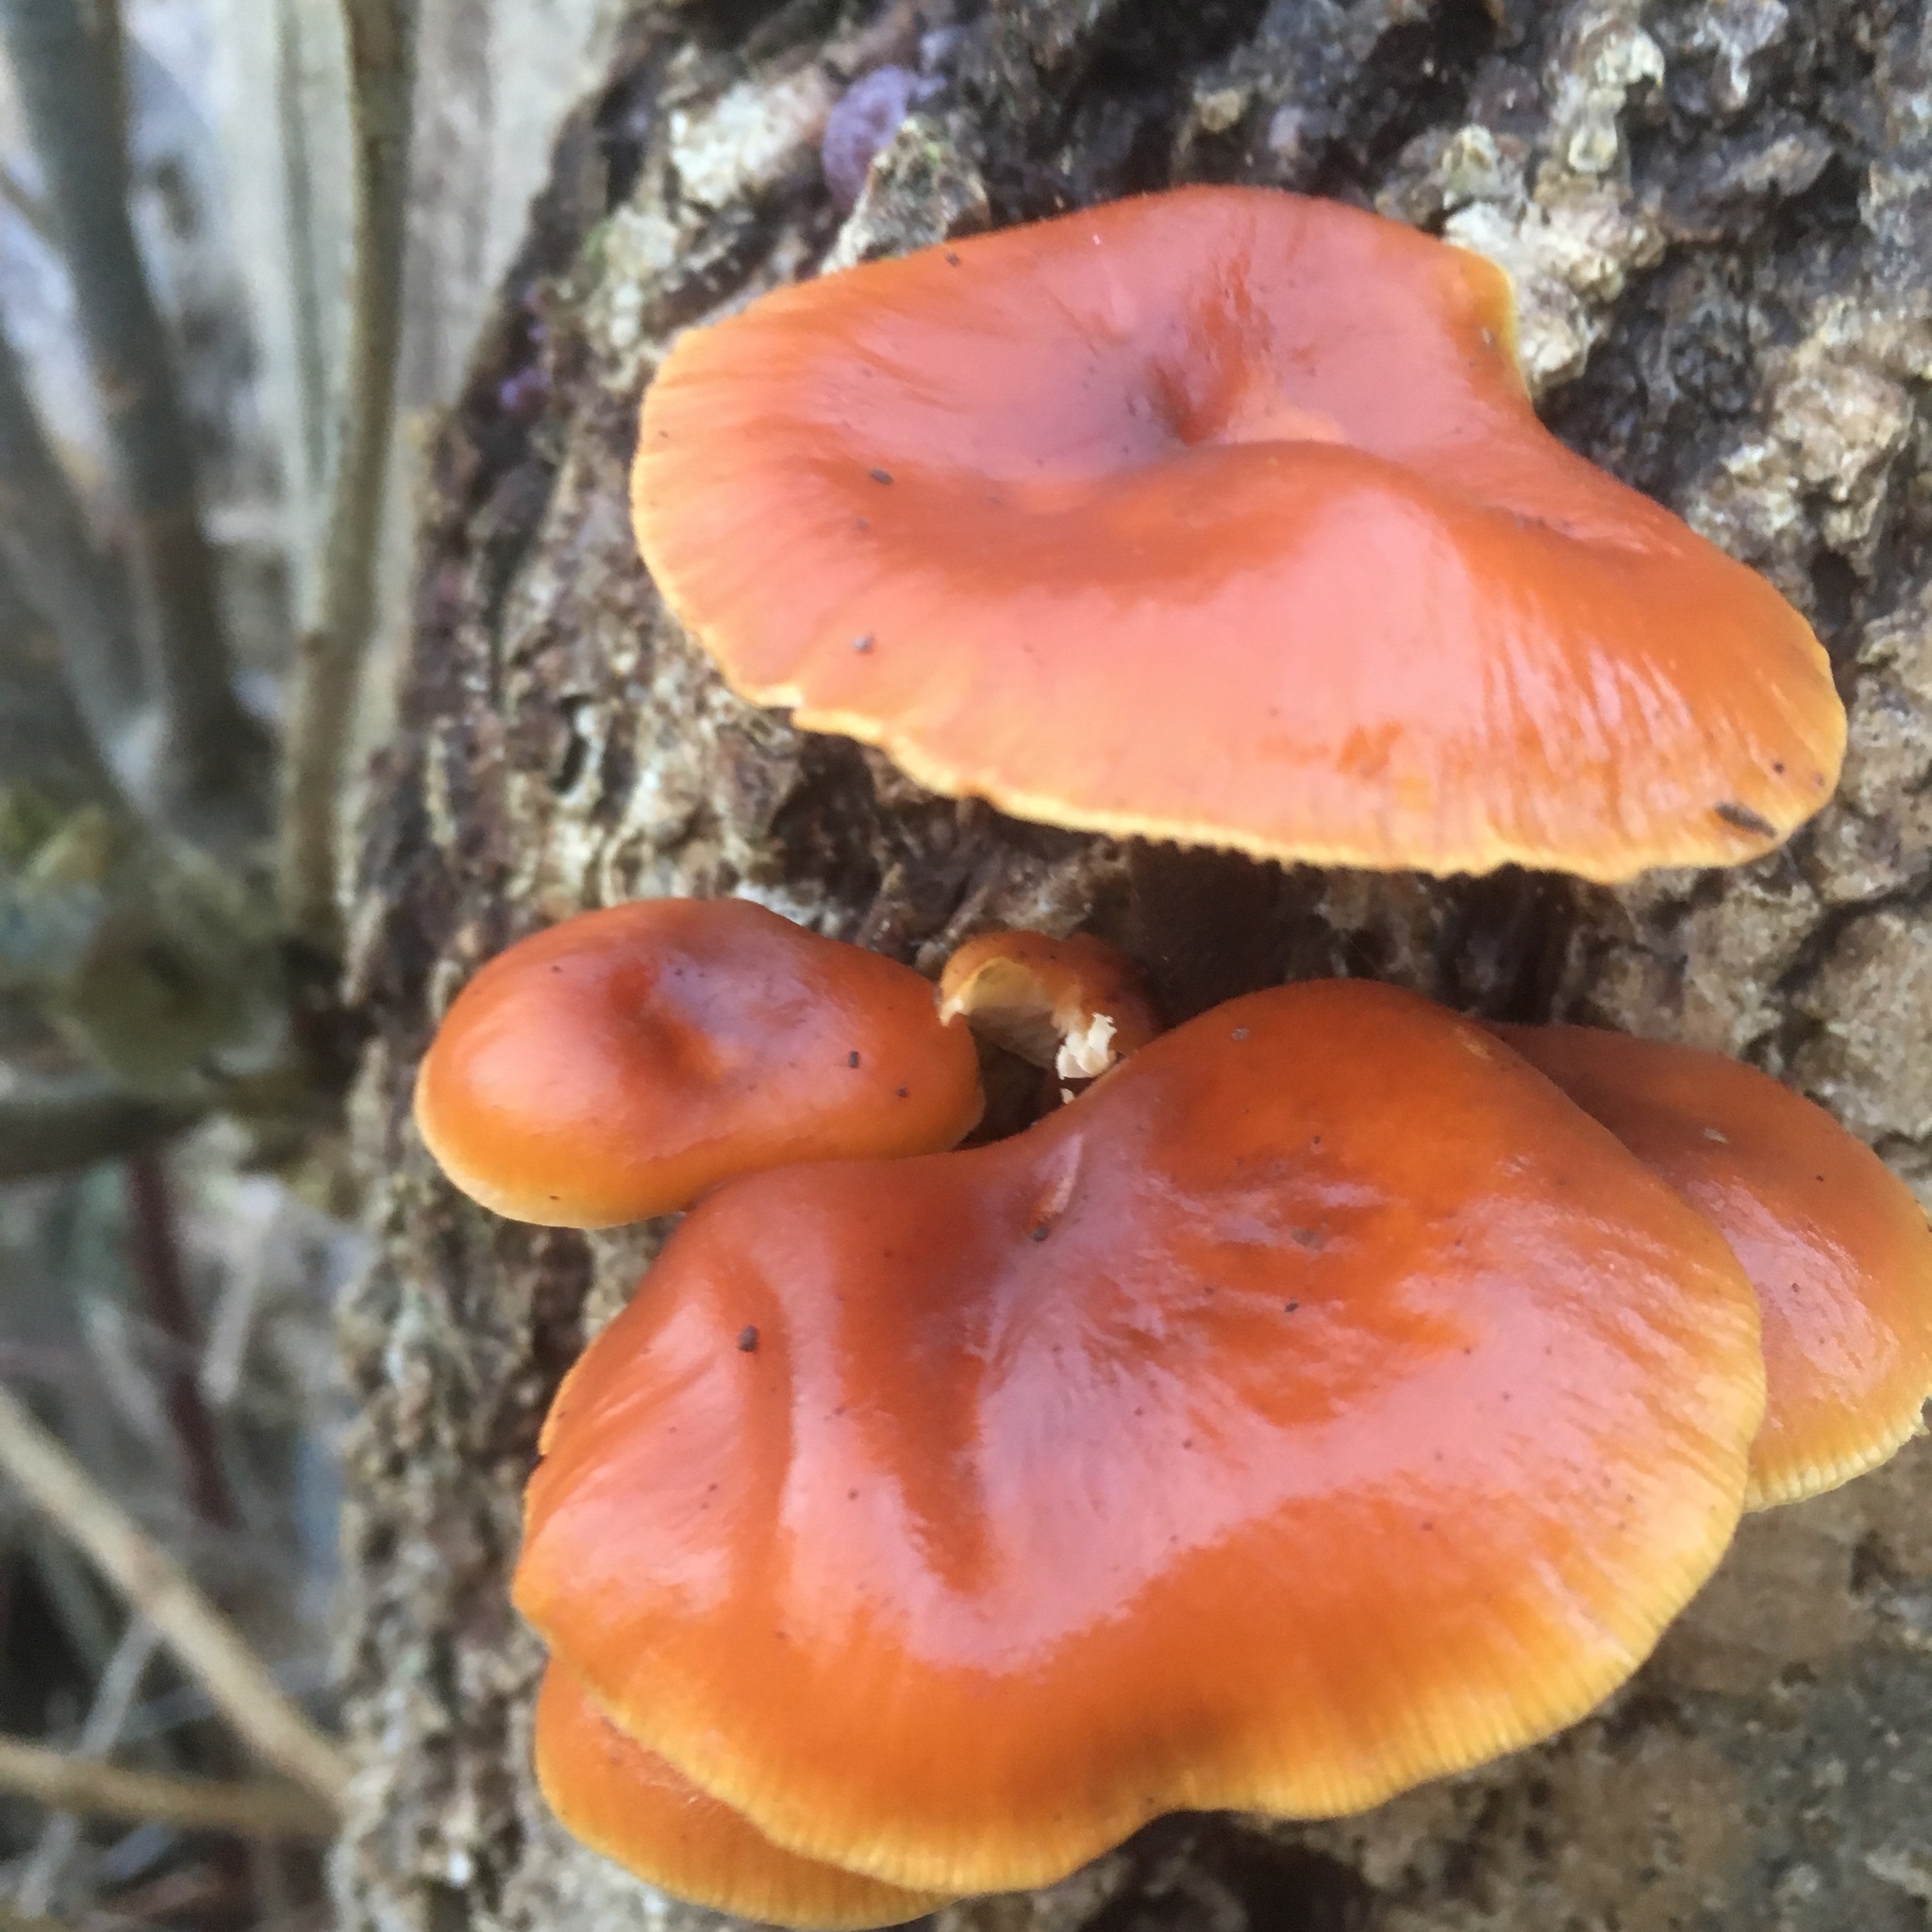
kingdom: Fungi
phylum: Basidiomycota
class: Agaricomycetes
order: Agaricales
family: Physalacriaceae
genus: Flammulina
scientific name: Flammulina
